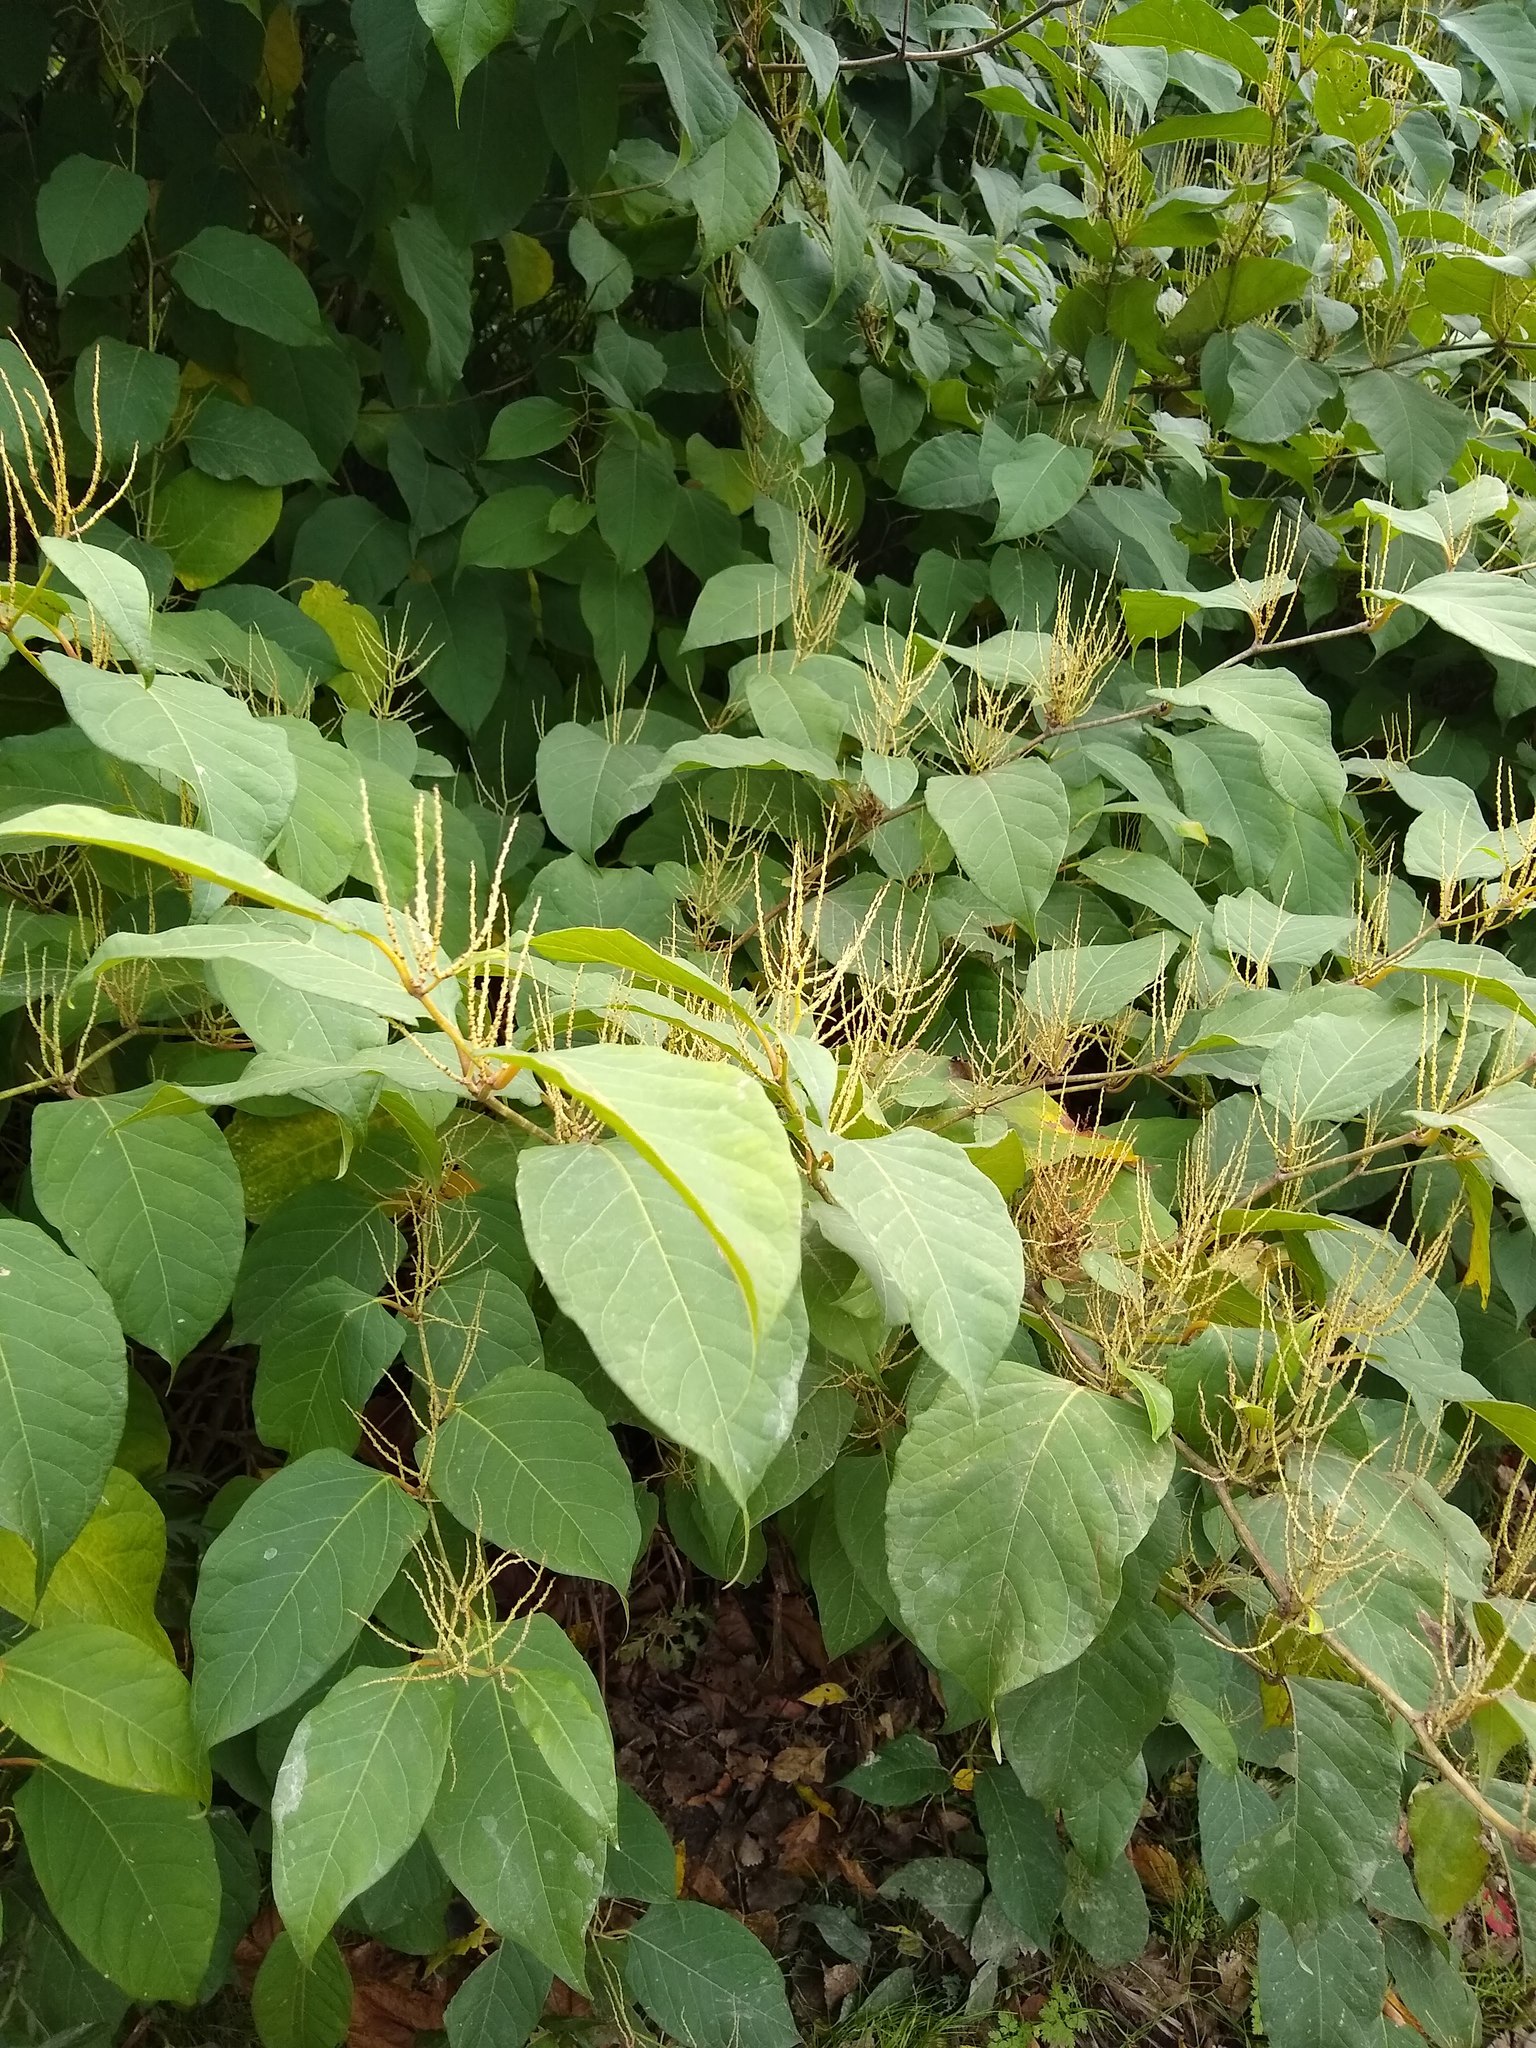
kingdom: Plantae
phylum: Tracheophyta
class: Magnoliopsida
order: Caryophyllales
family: Polygonaceae
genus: Reynoutria
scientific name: Reynoutria japonica
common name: Japanese knotweed
